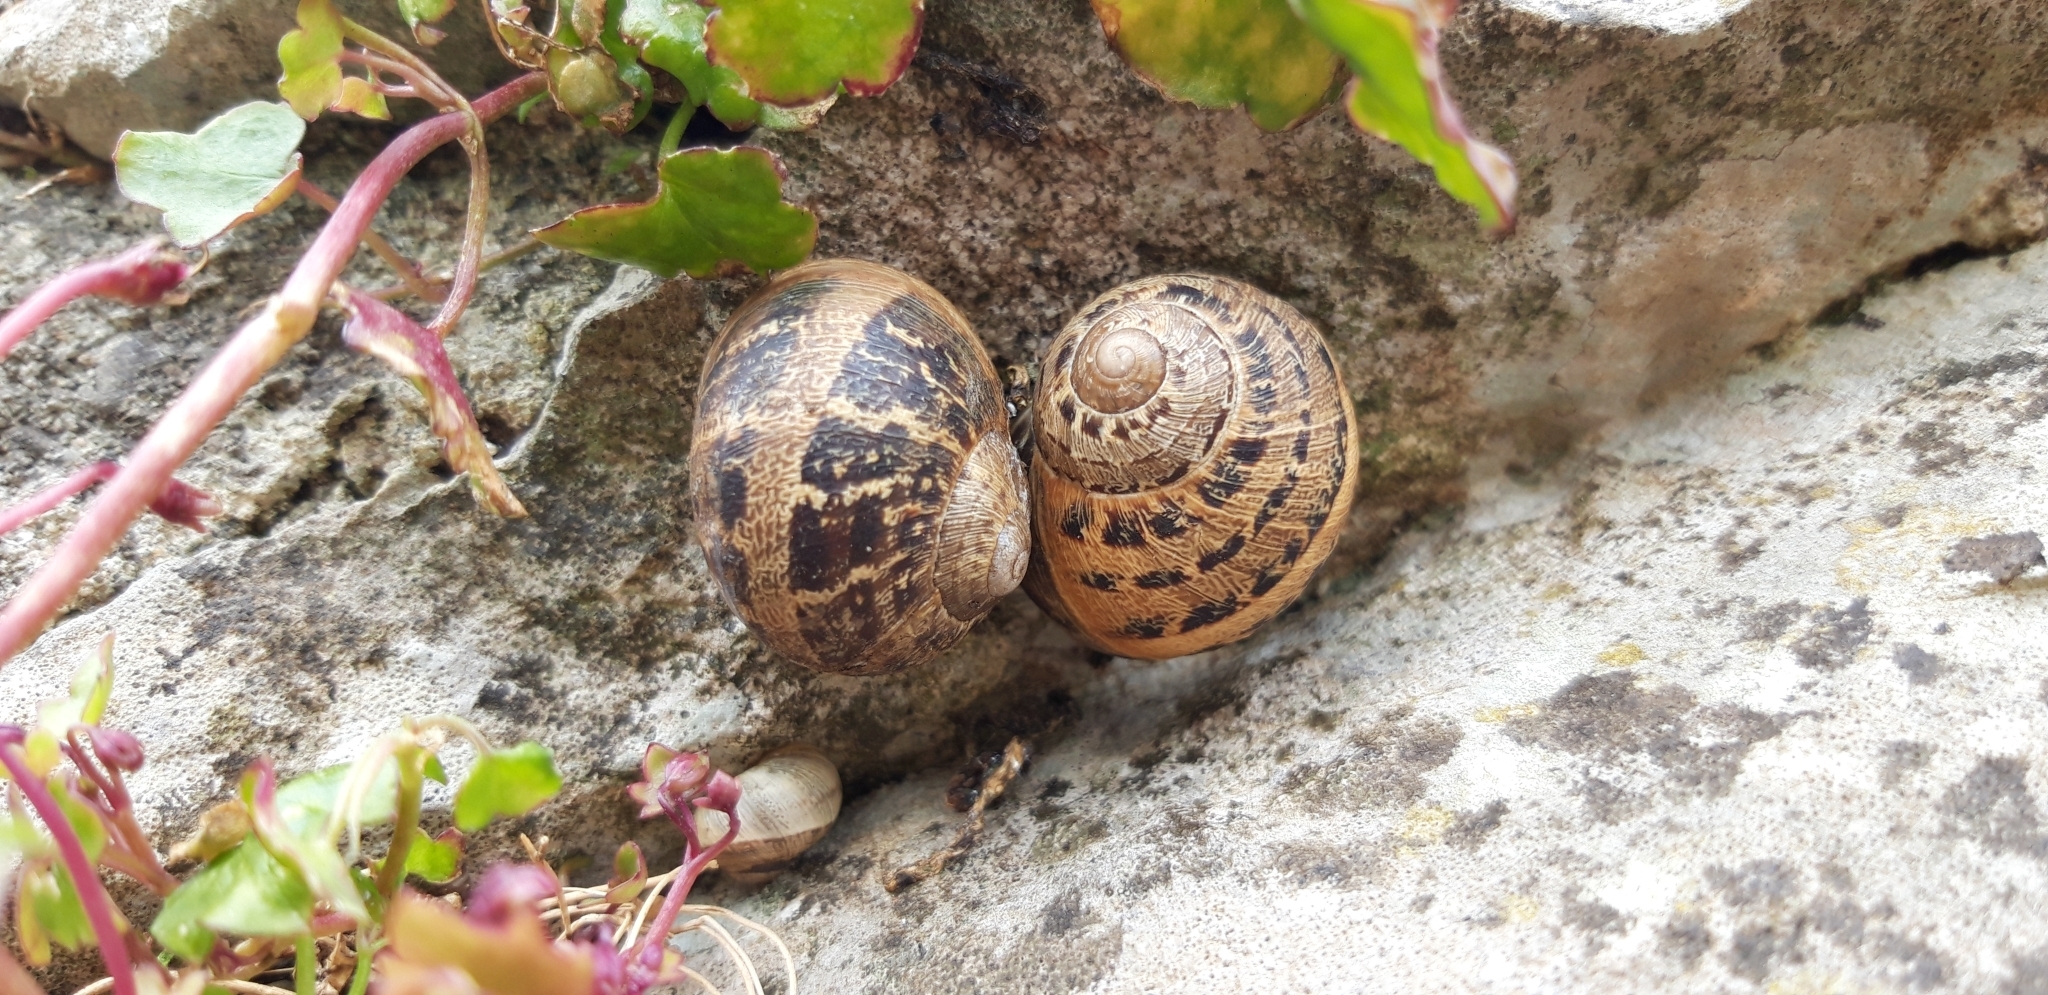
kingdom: Animalia
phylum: Mollusca
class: Gastropoda
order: Stylommatophora
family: Helicidae
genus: Cornu
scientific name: Cornu aspersum
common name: Brown garden snail
